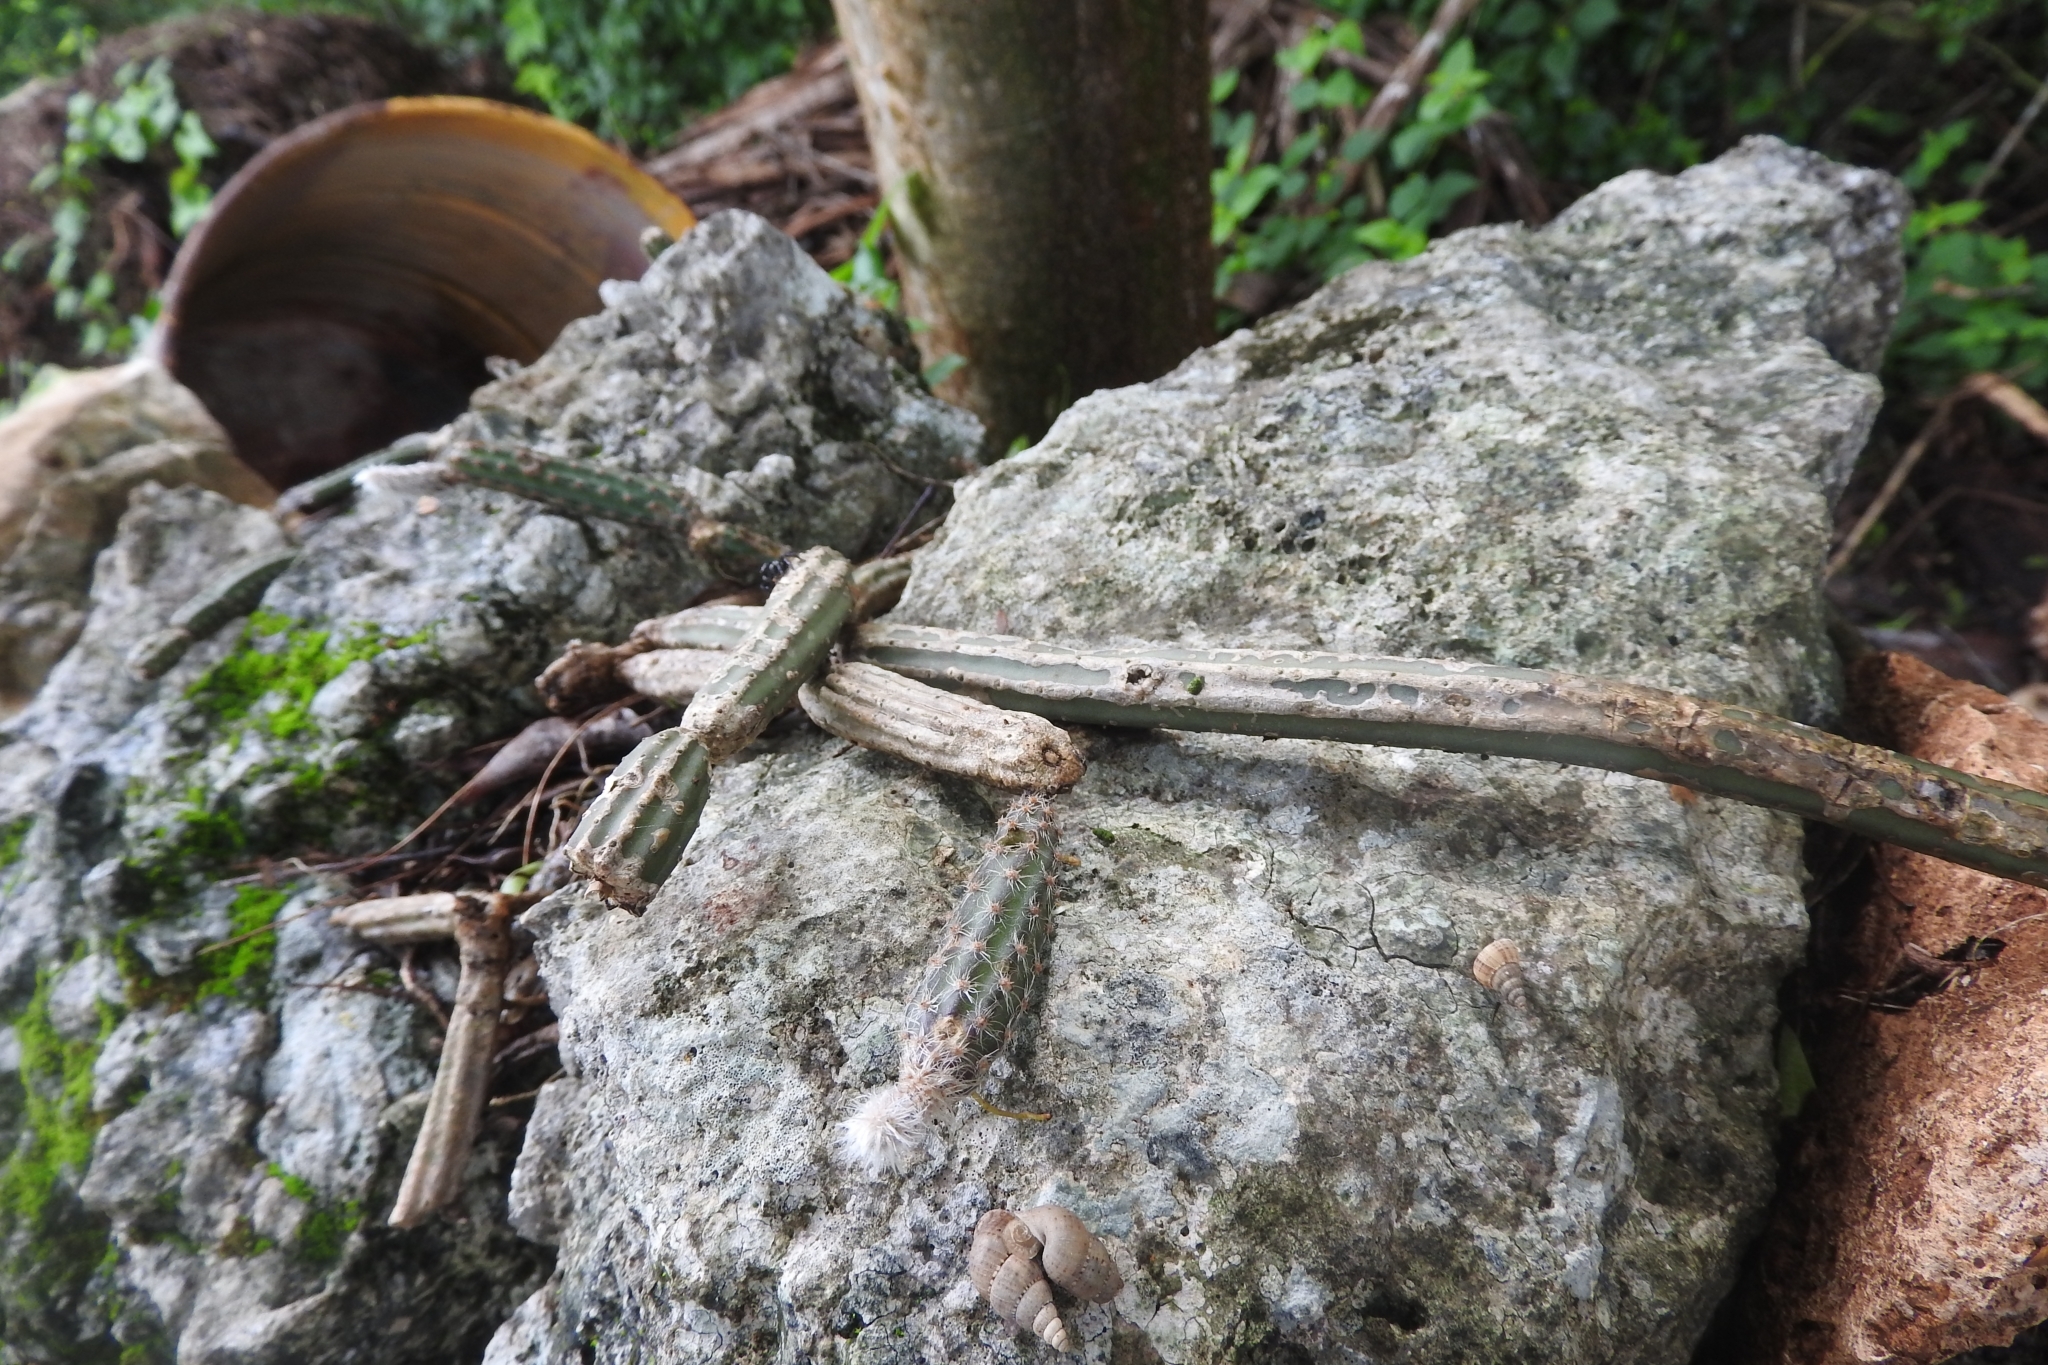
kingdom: Plantae
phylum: Tracheophyta
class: Magnoliopsida
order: Caryophyllales
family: Cactaceae
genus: Selenicereus
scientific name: Selenicereus grandiflorus
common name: Queen of the night
